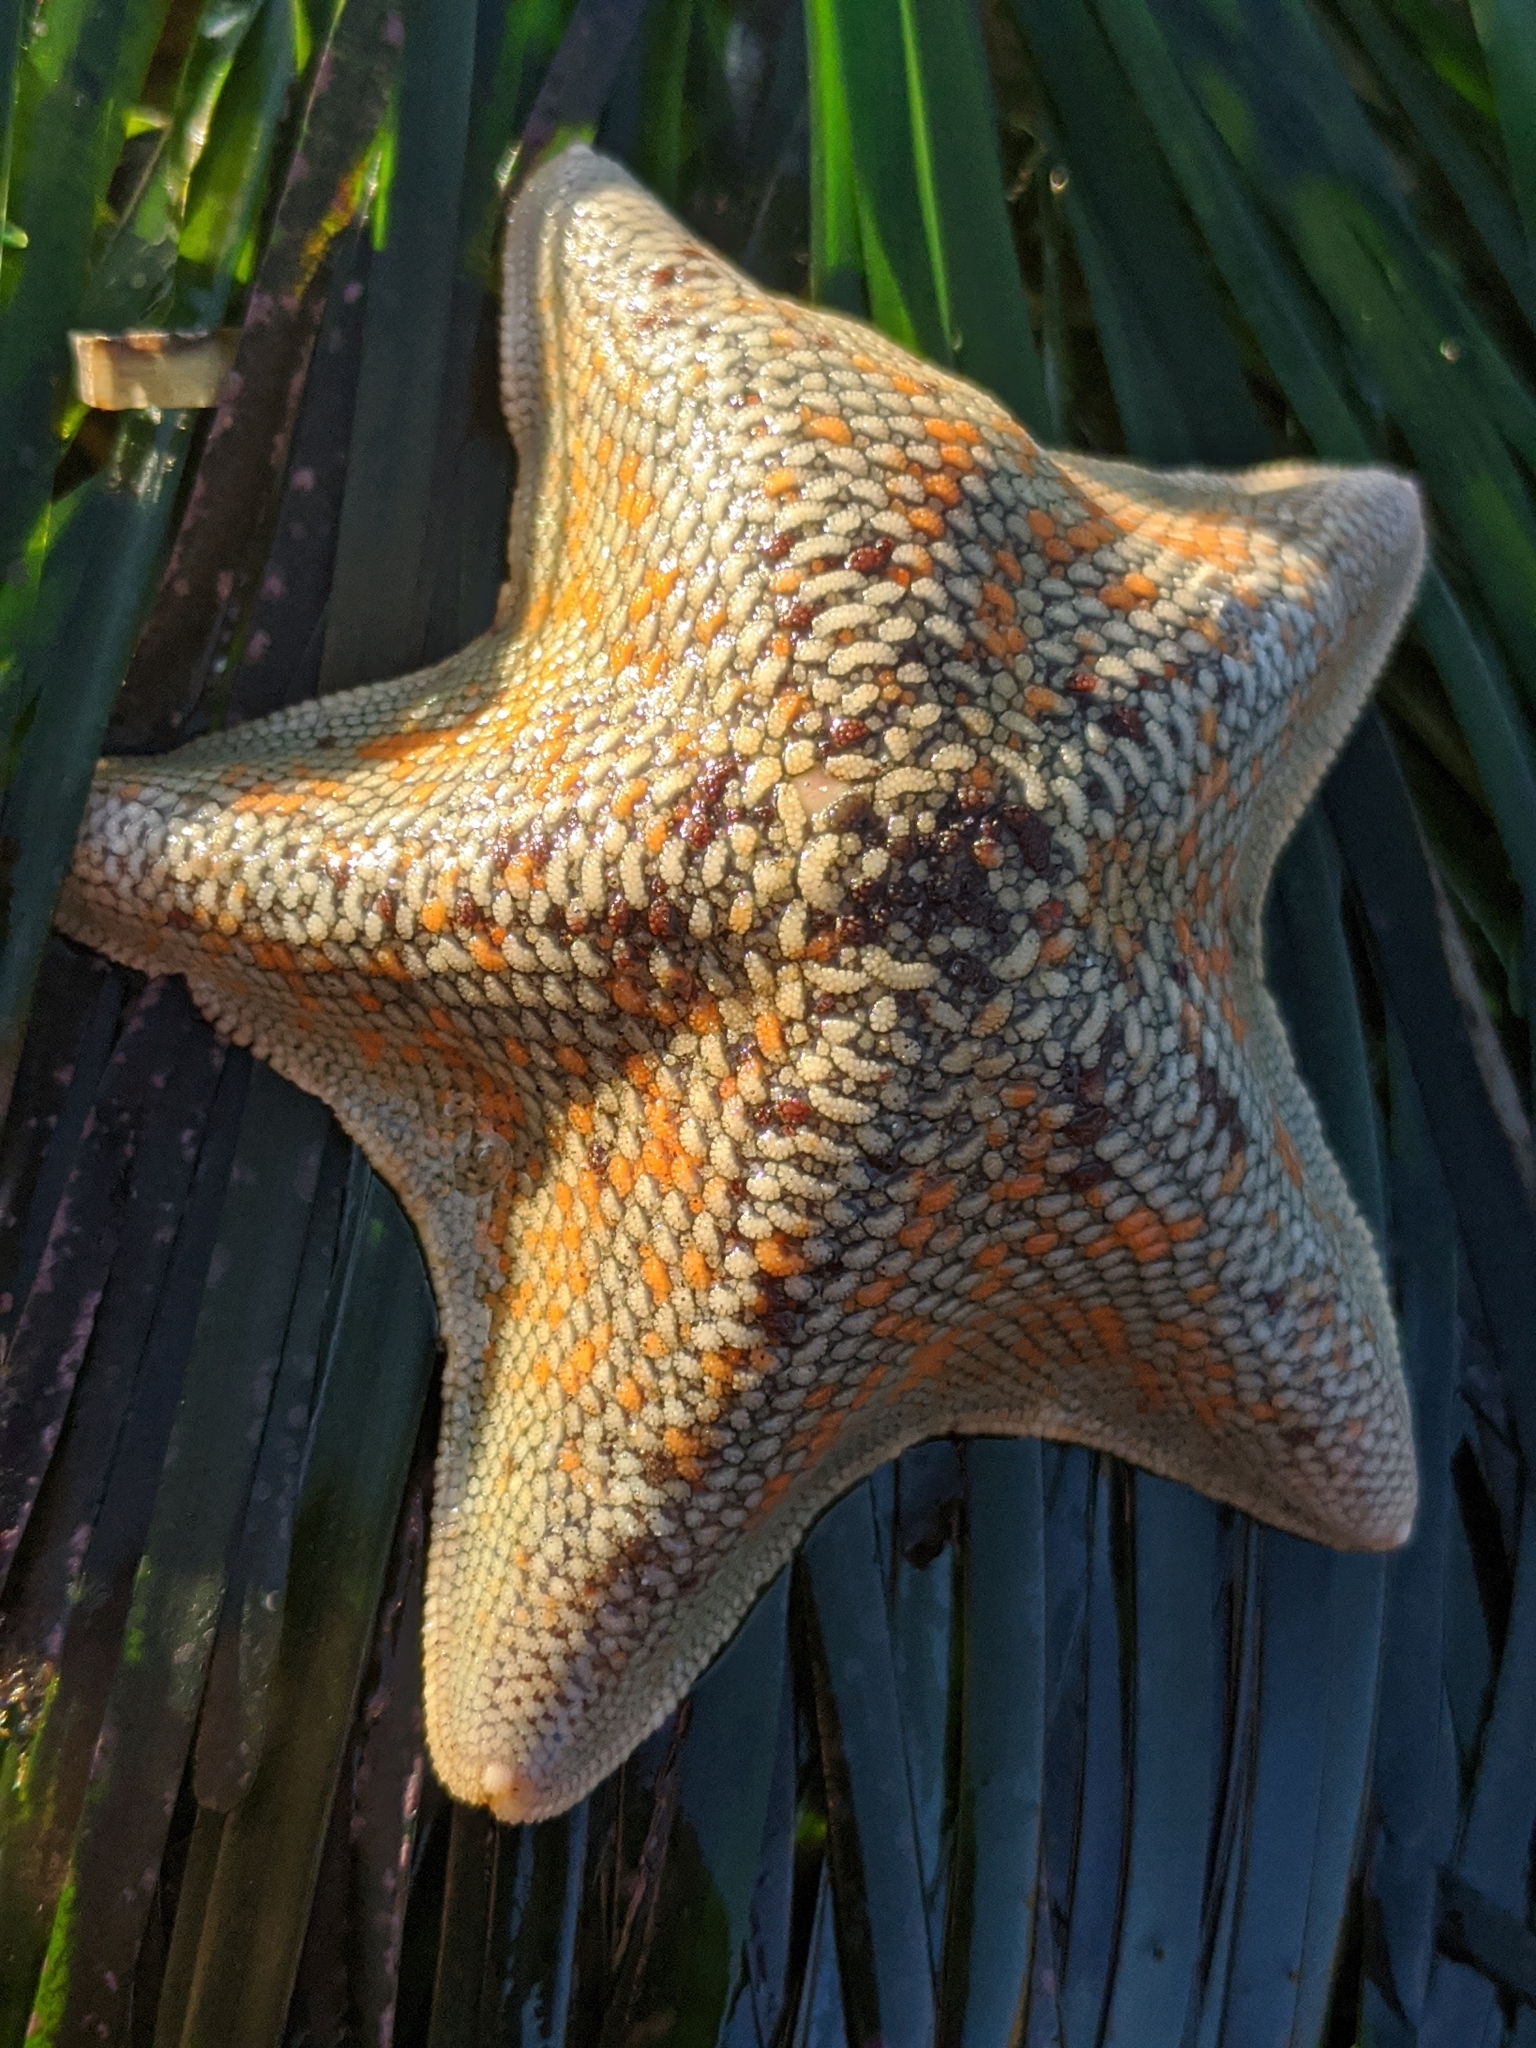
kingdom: Animalia
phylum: Echinodermata
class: Asteroidea
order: Valvatida
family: Asterinidae
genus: Patiria
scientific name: Patiria miniata
